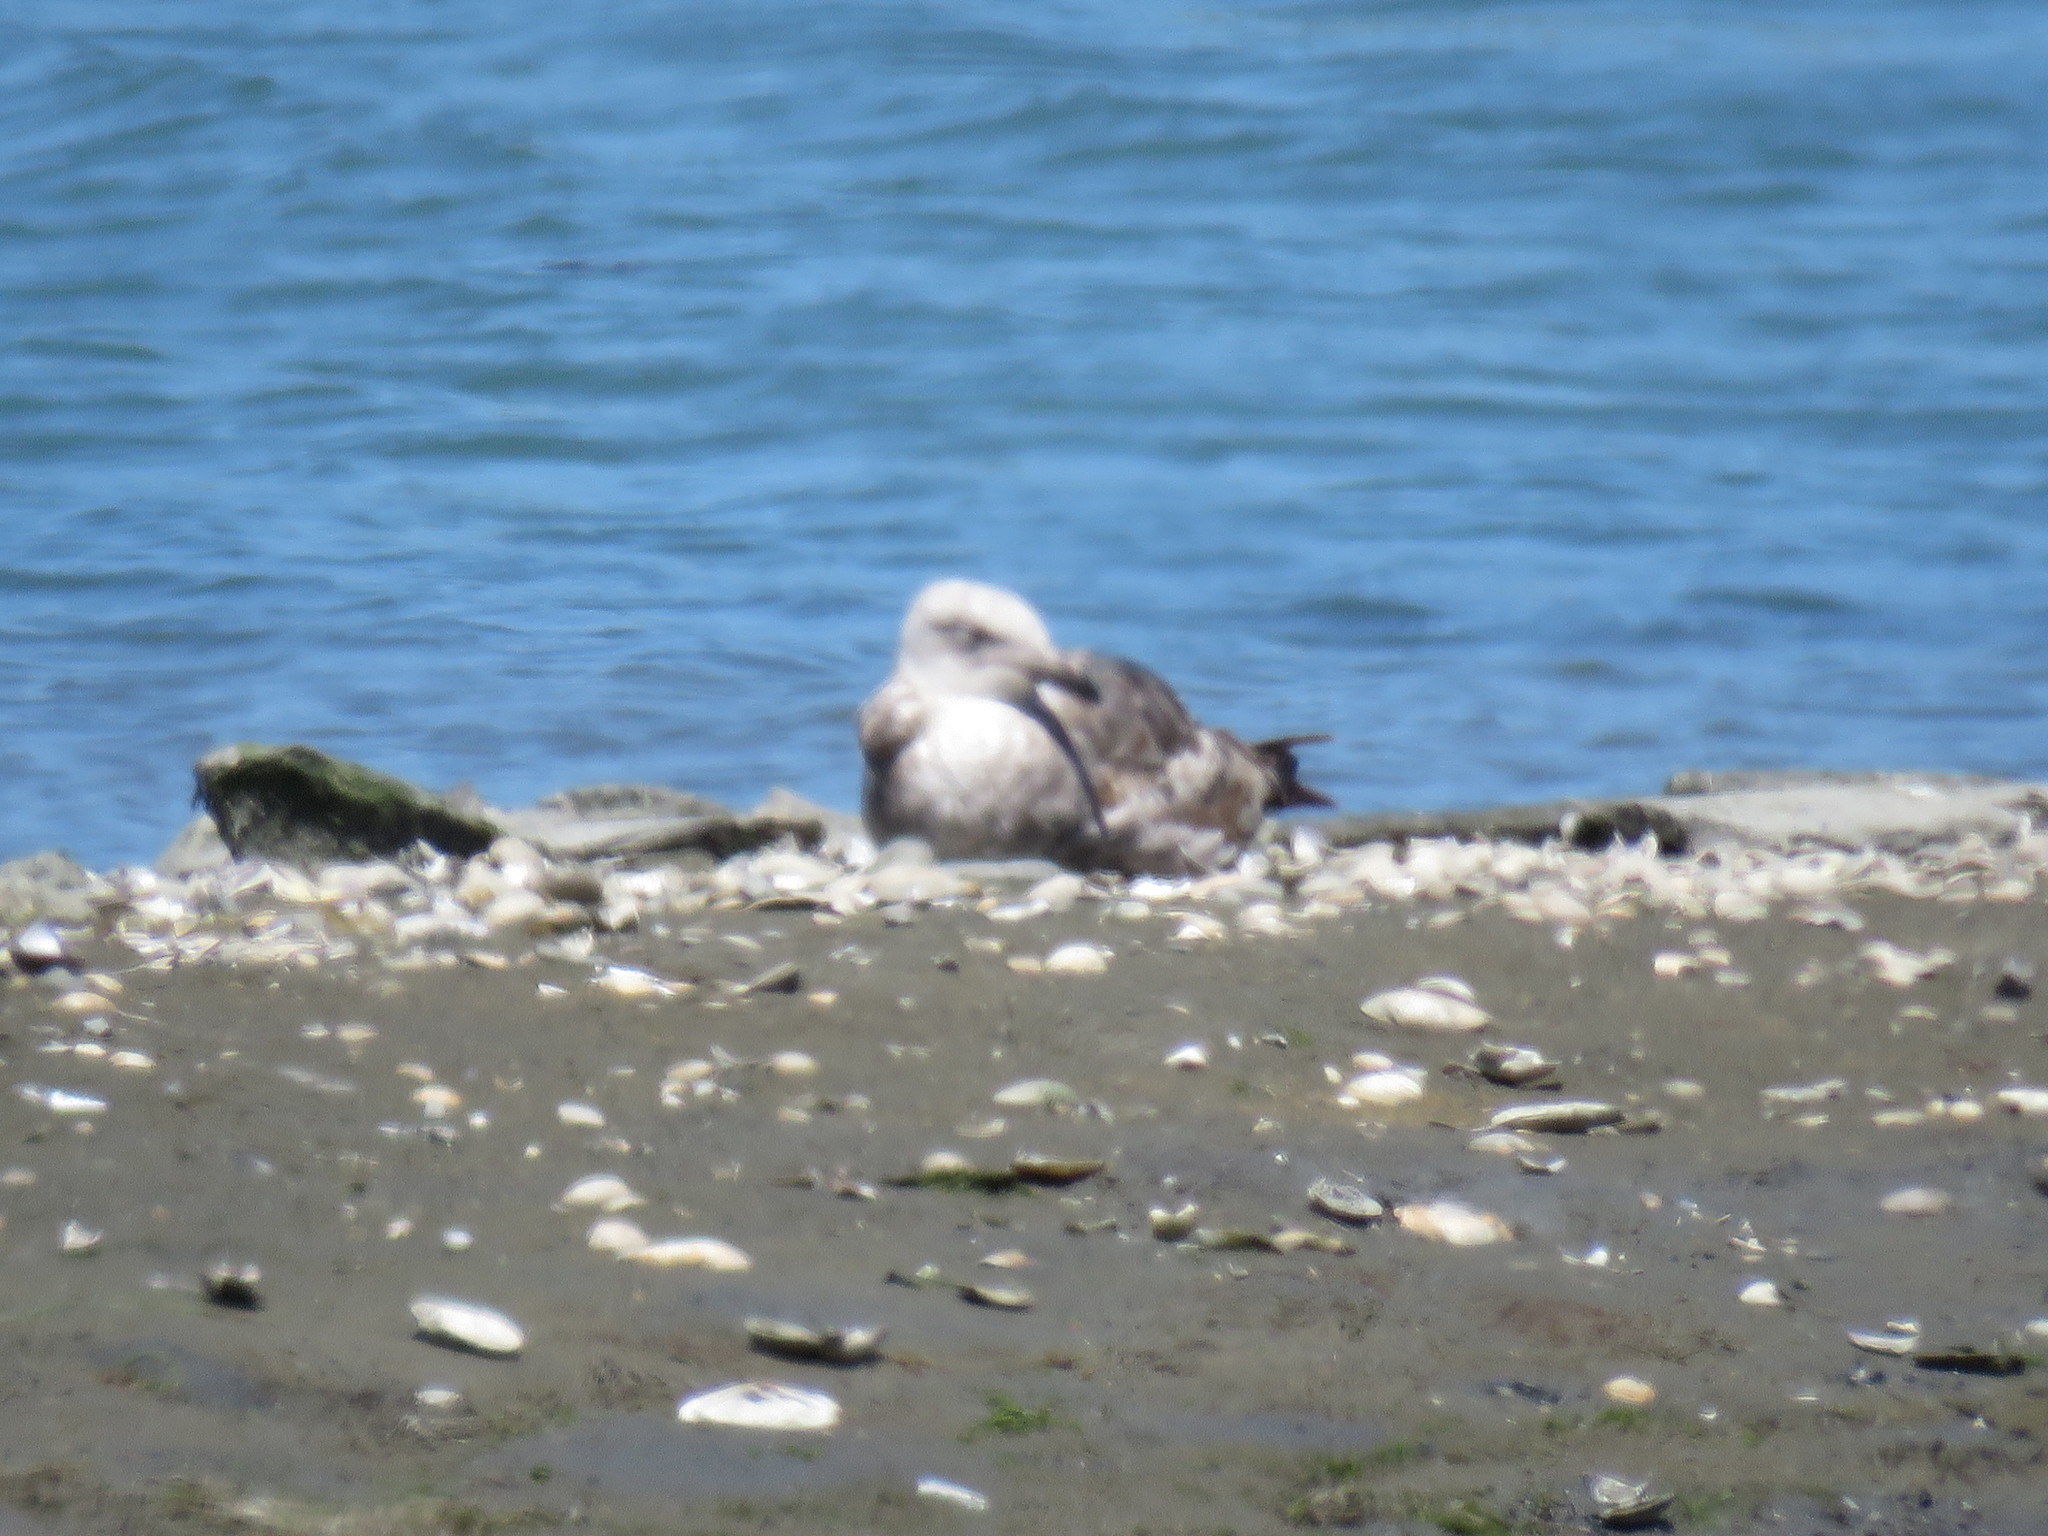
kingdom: Animalia
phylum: Chordata
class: Aves
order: Charadriiformes
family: Laridae
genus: Larus
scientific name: Larus occidentalis
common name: Western gull
